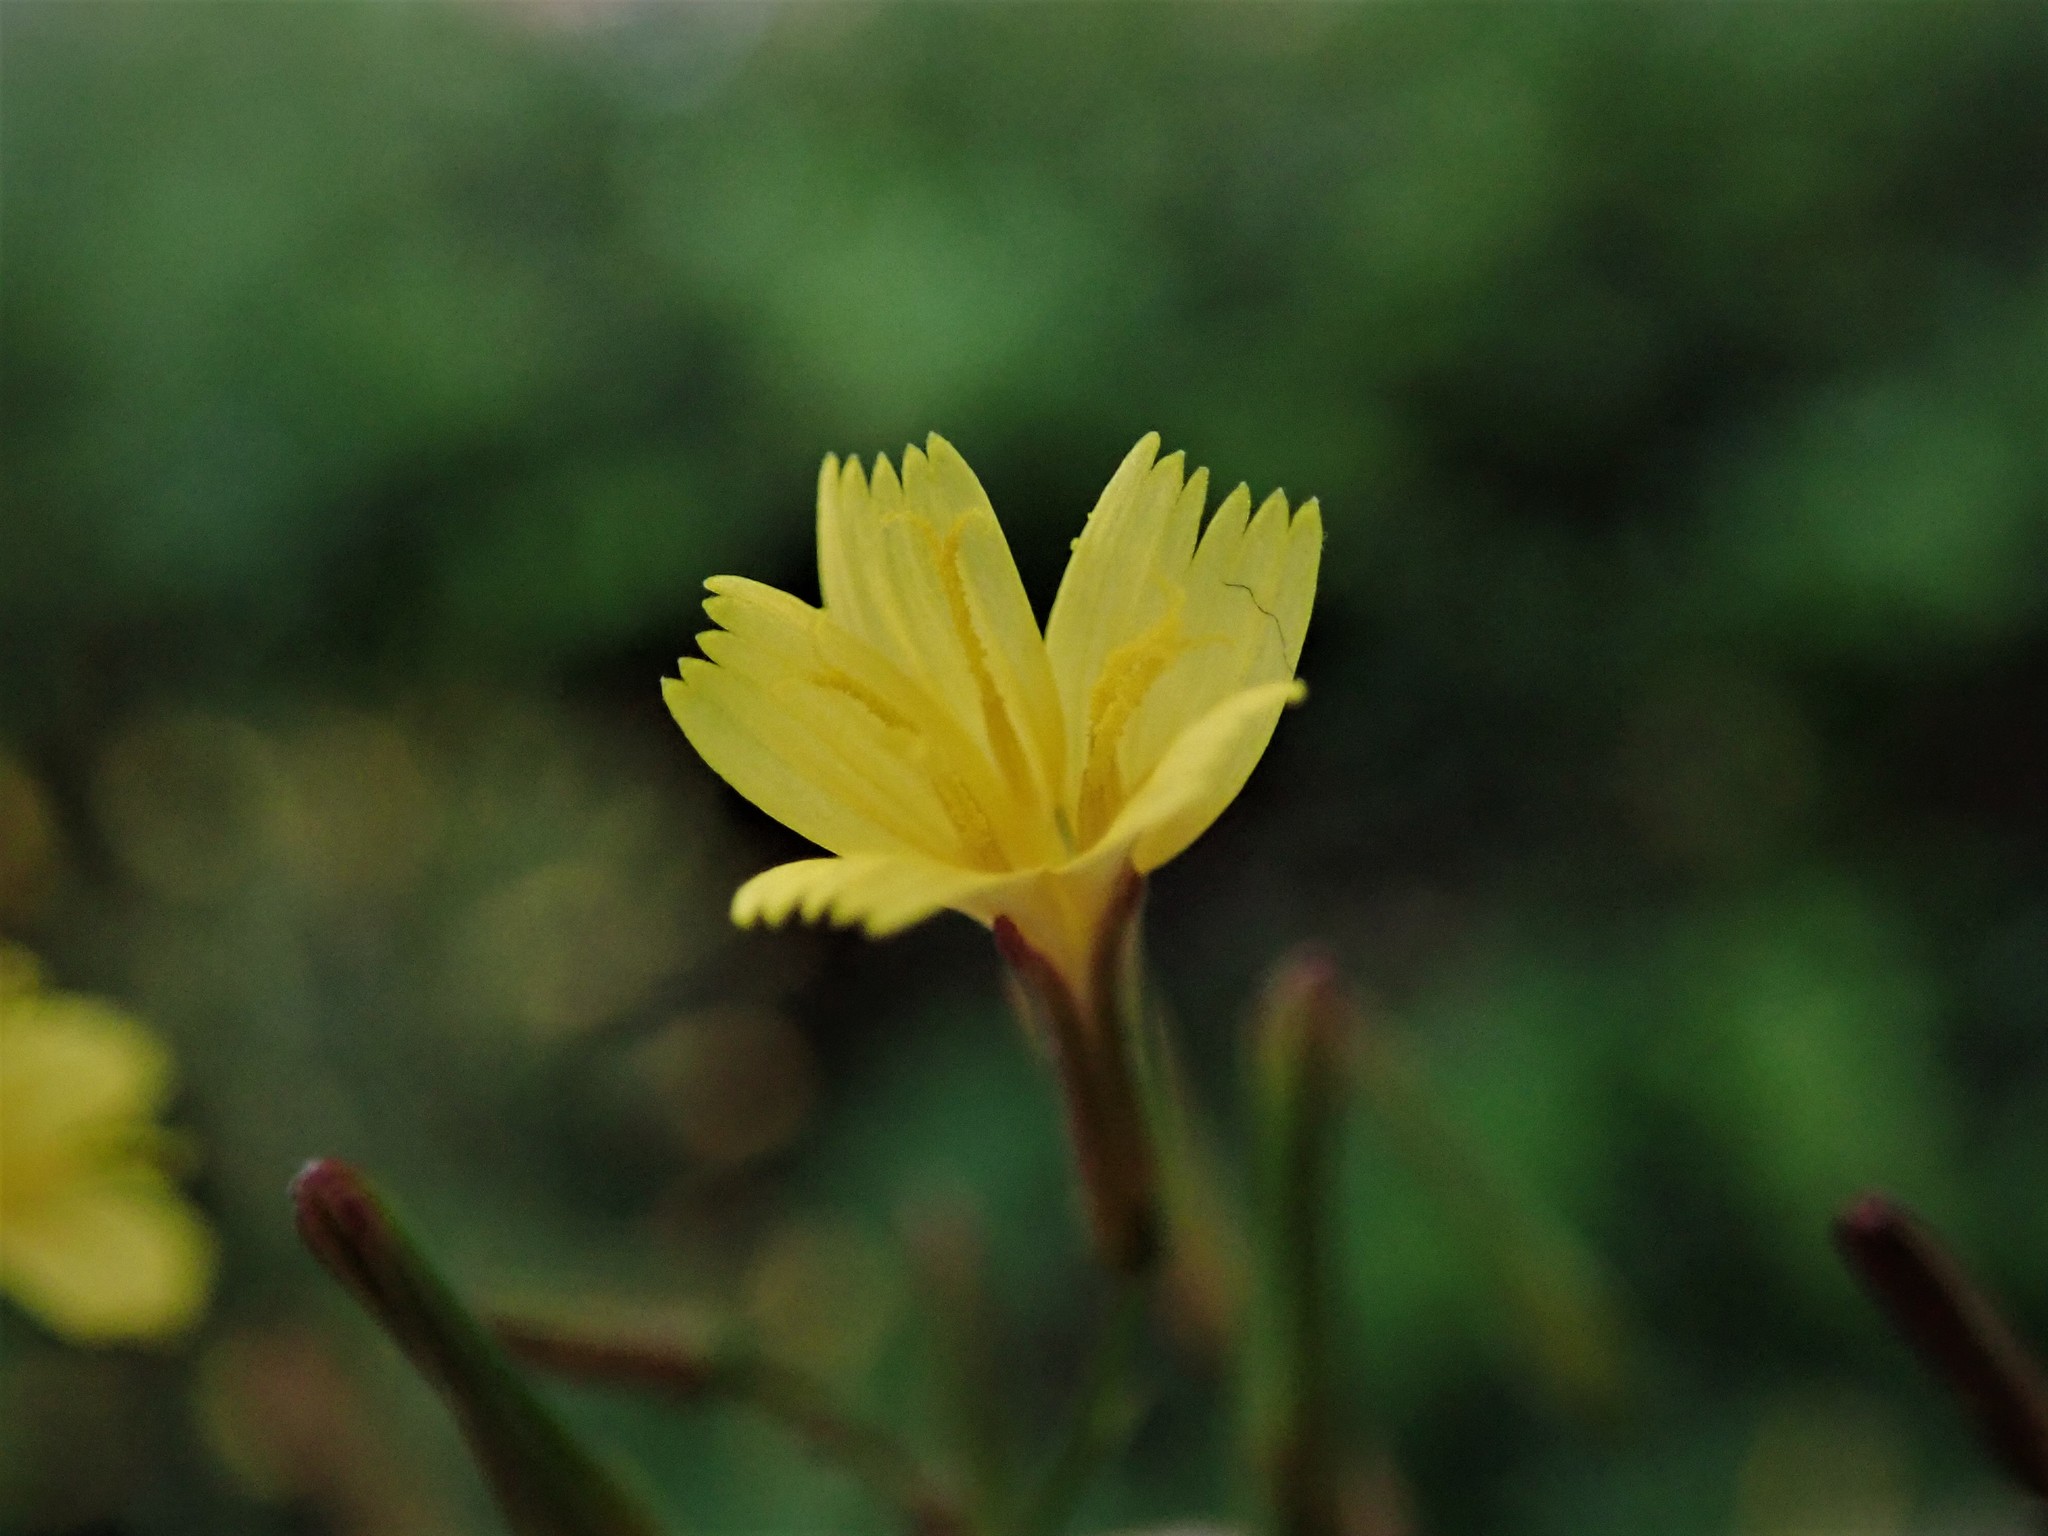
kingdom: Plantae
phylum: Tracheophyta
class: Magnoliopsida
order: Asterales
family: Asteraceae
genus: Mycelis
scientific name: Mycelis muralis
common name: Wall lettuce
